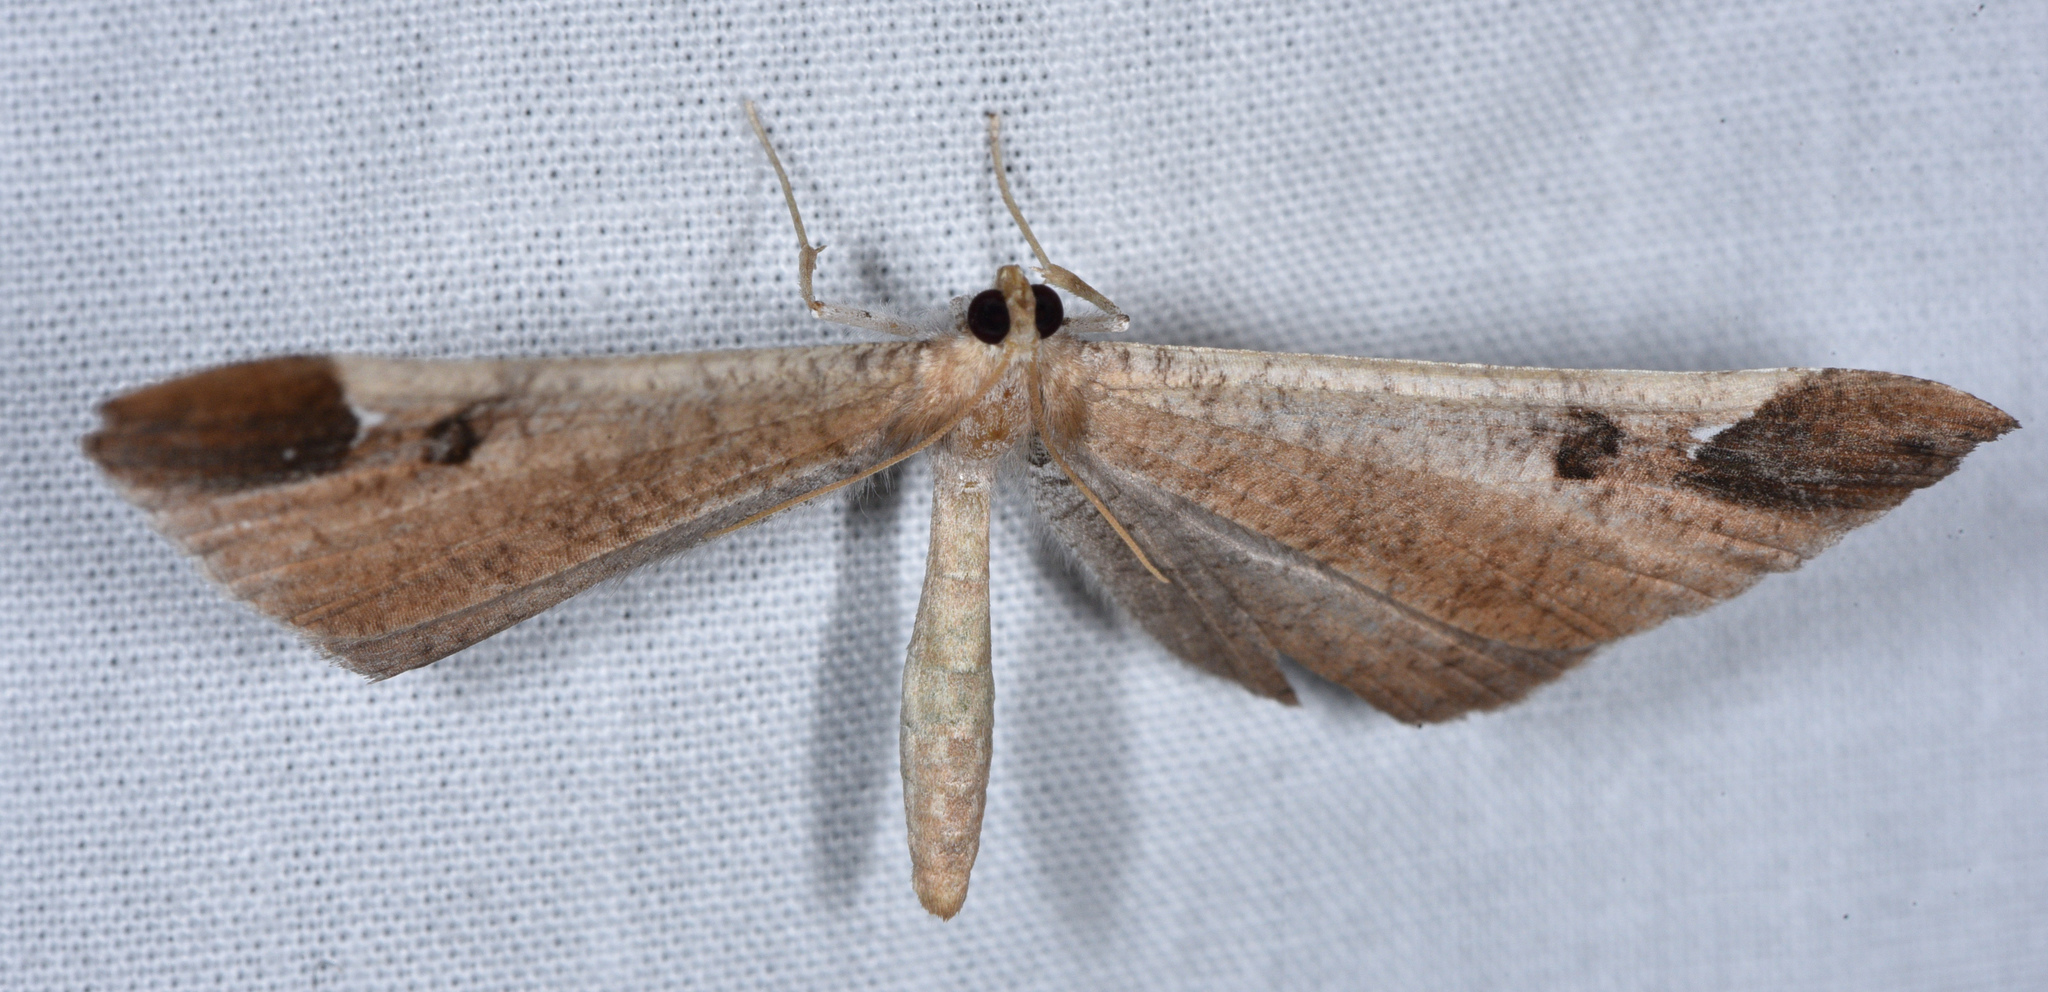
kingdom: Animalia
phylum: Arthropoda
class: Insecta
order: Lepidoptera
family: Hedylidae
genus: Macrosoma
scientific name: Macrosoma majormacula
